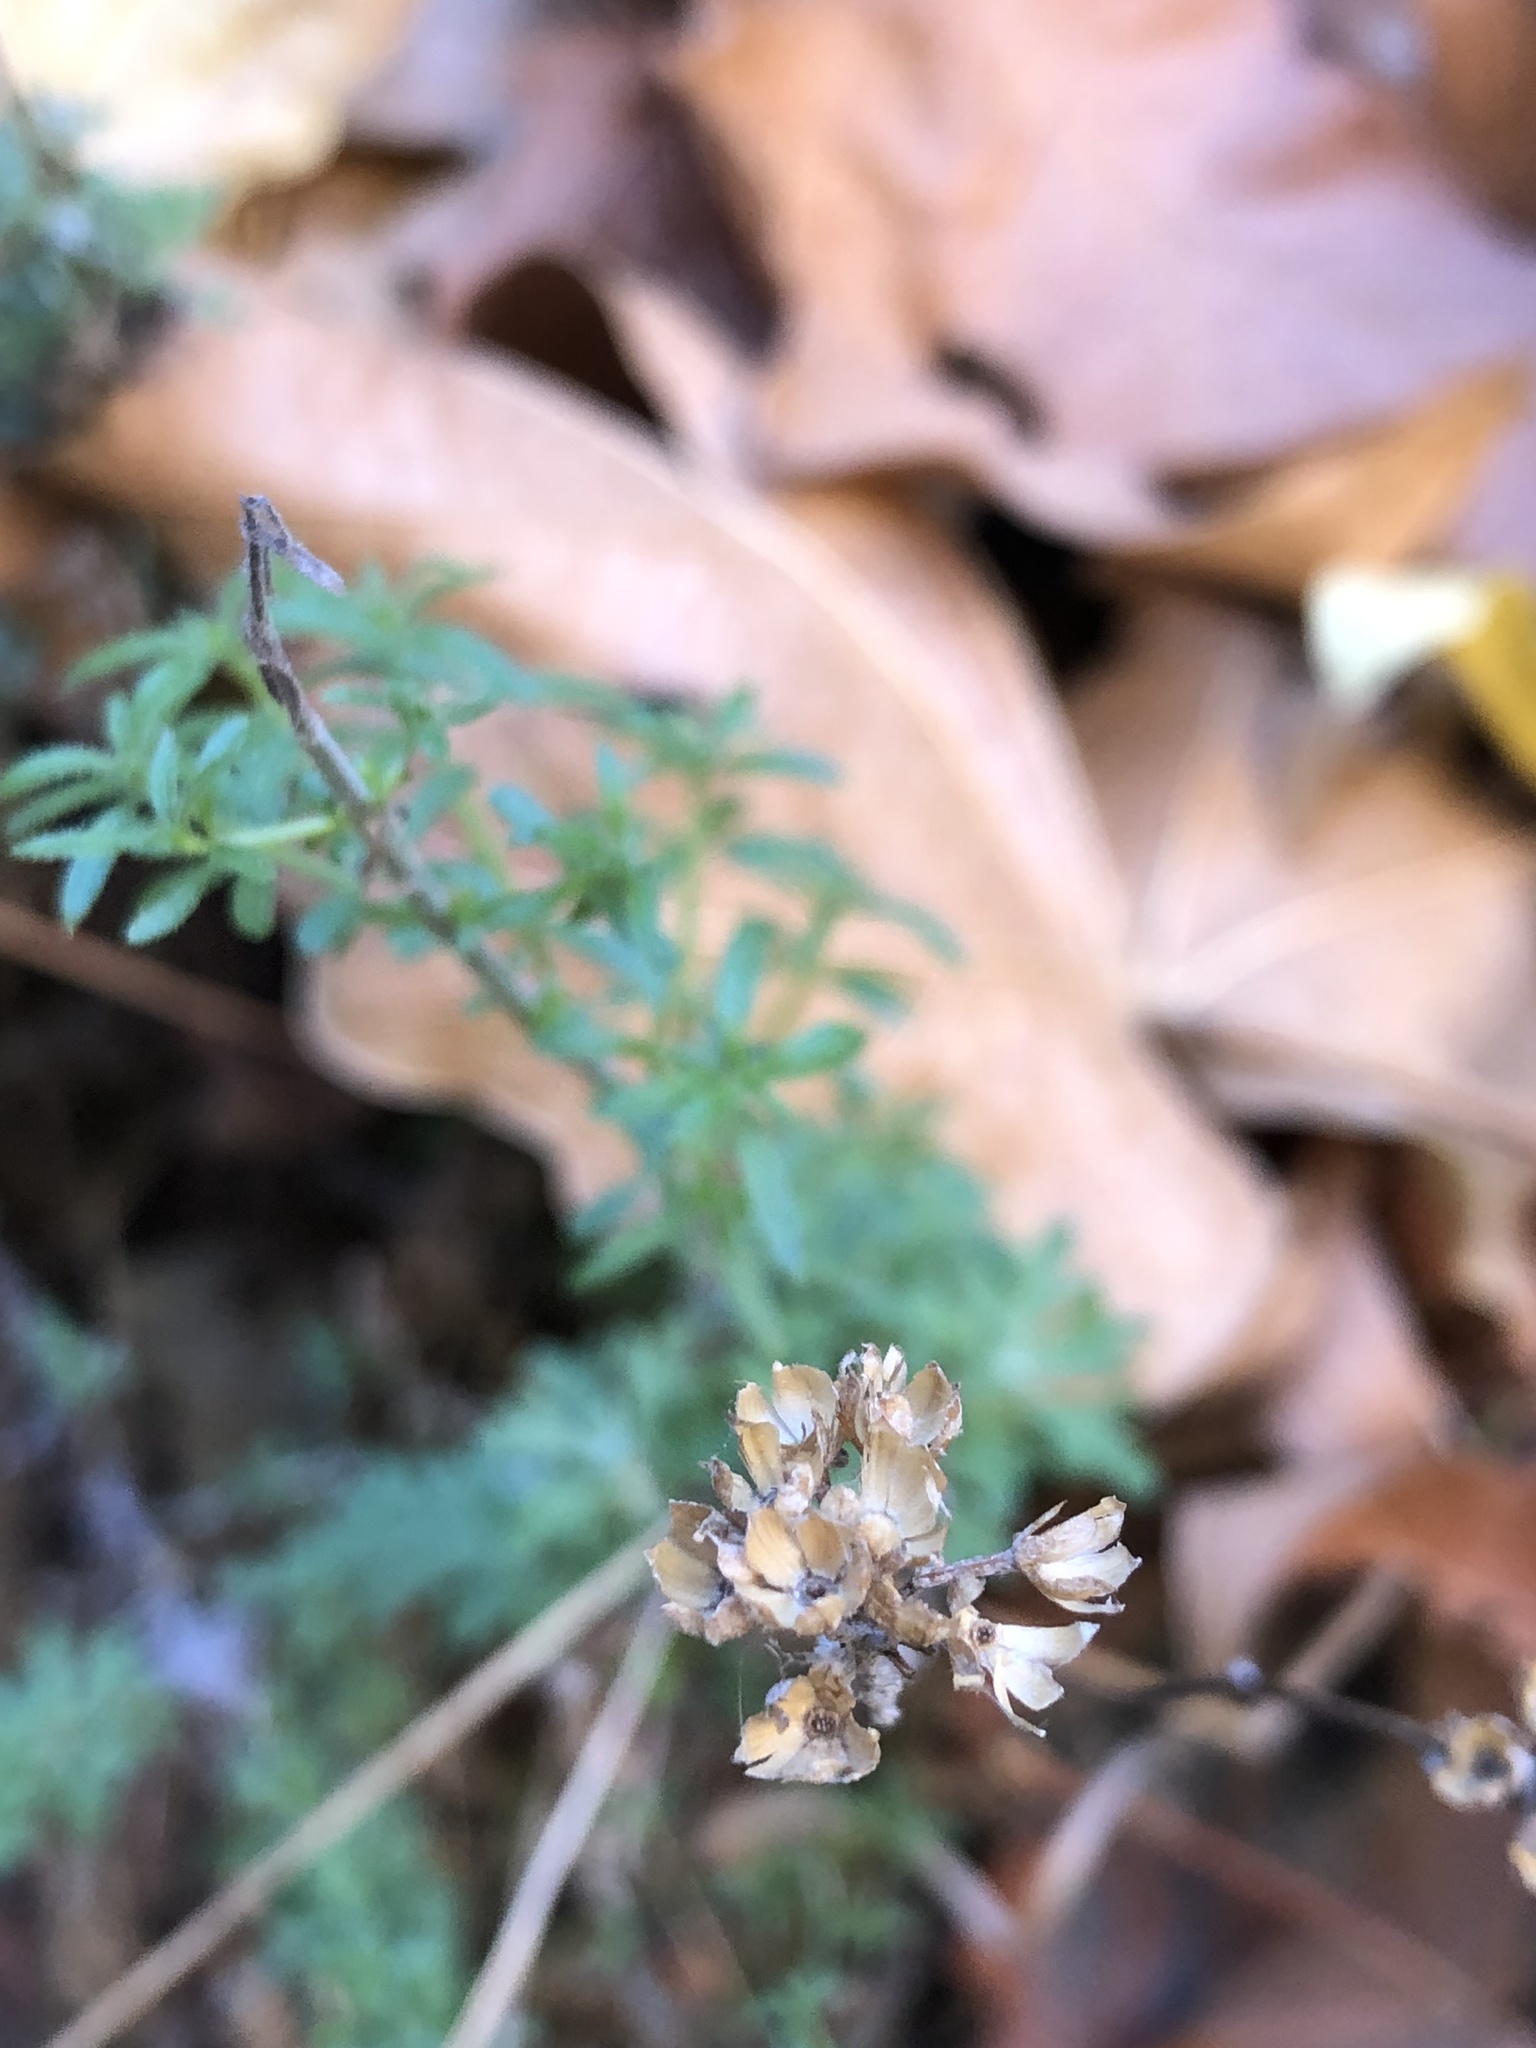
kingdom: Plantae
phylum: Tracheophyta
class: Magnoliopsida
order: Gentianales
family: Rubiaceae
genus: Galium
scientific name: Galium
